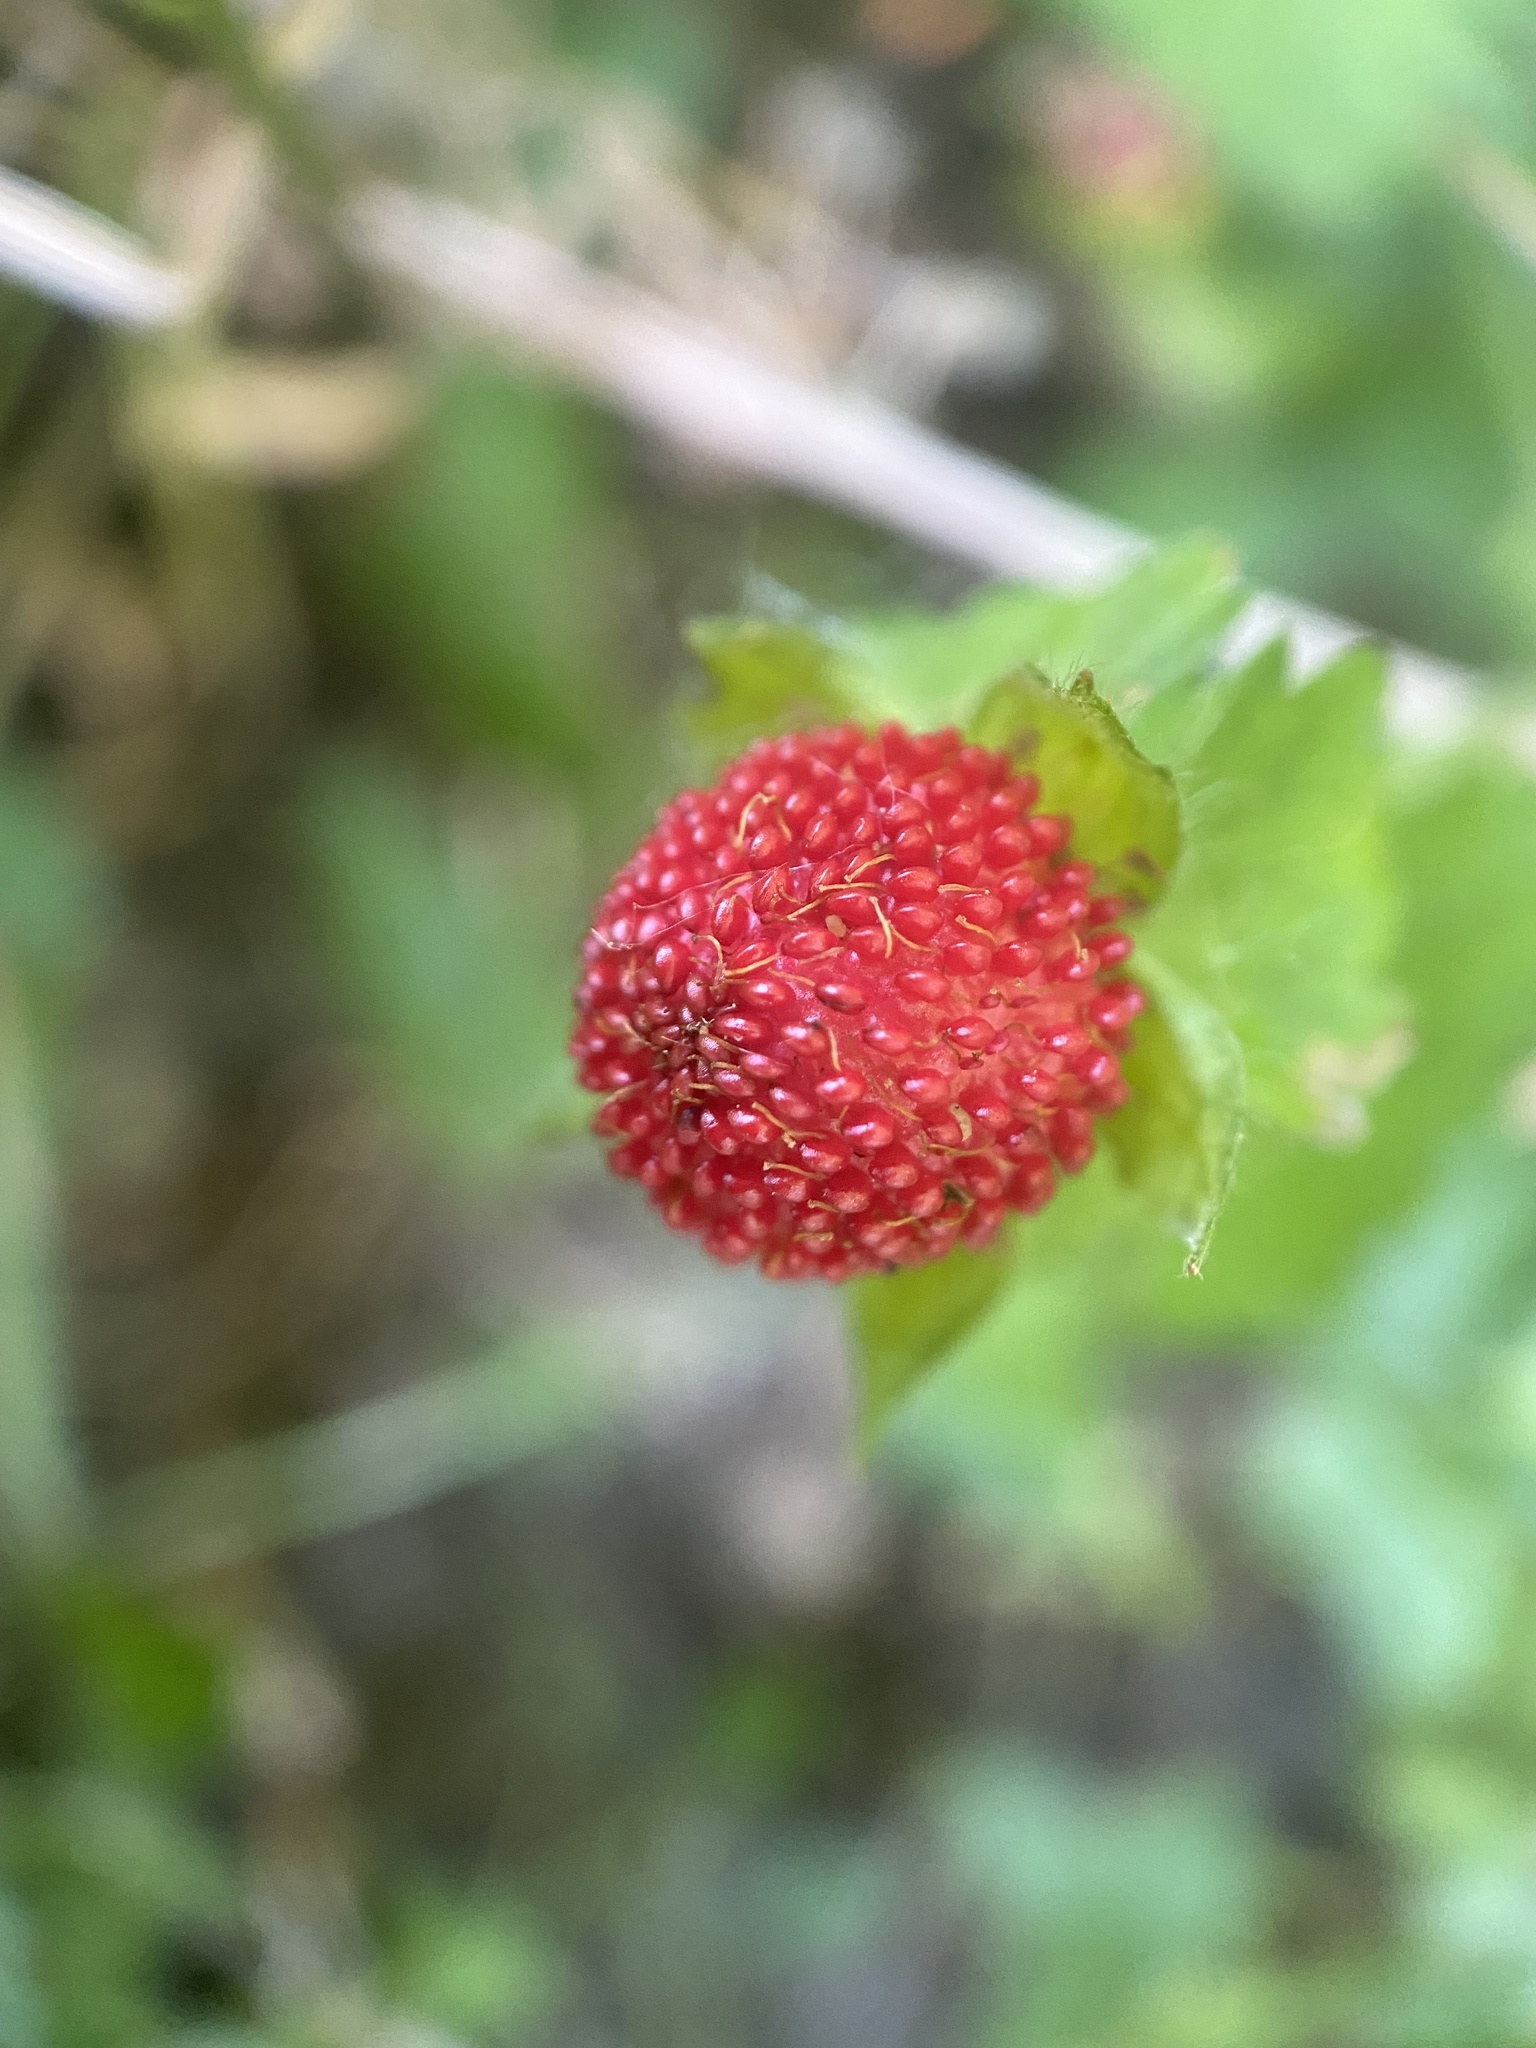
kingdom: Plantae
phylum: Tracheophyta
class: Magnoliopsida
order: Rosales
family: Rosaceae
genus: Potentilla
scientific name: Potentilla indica
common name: Yellow-flowered strawberry
